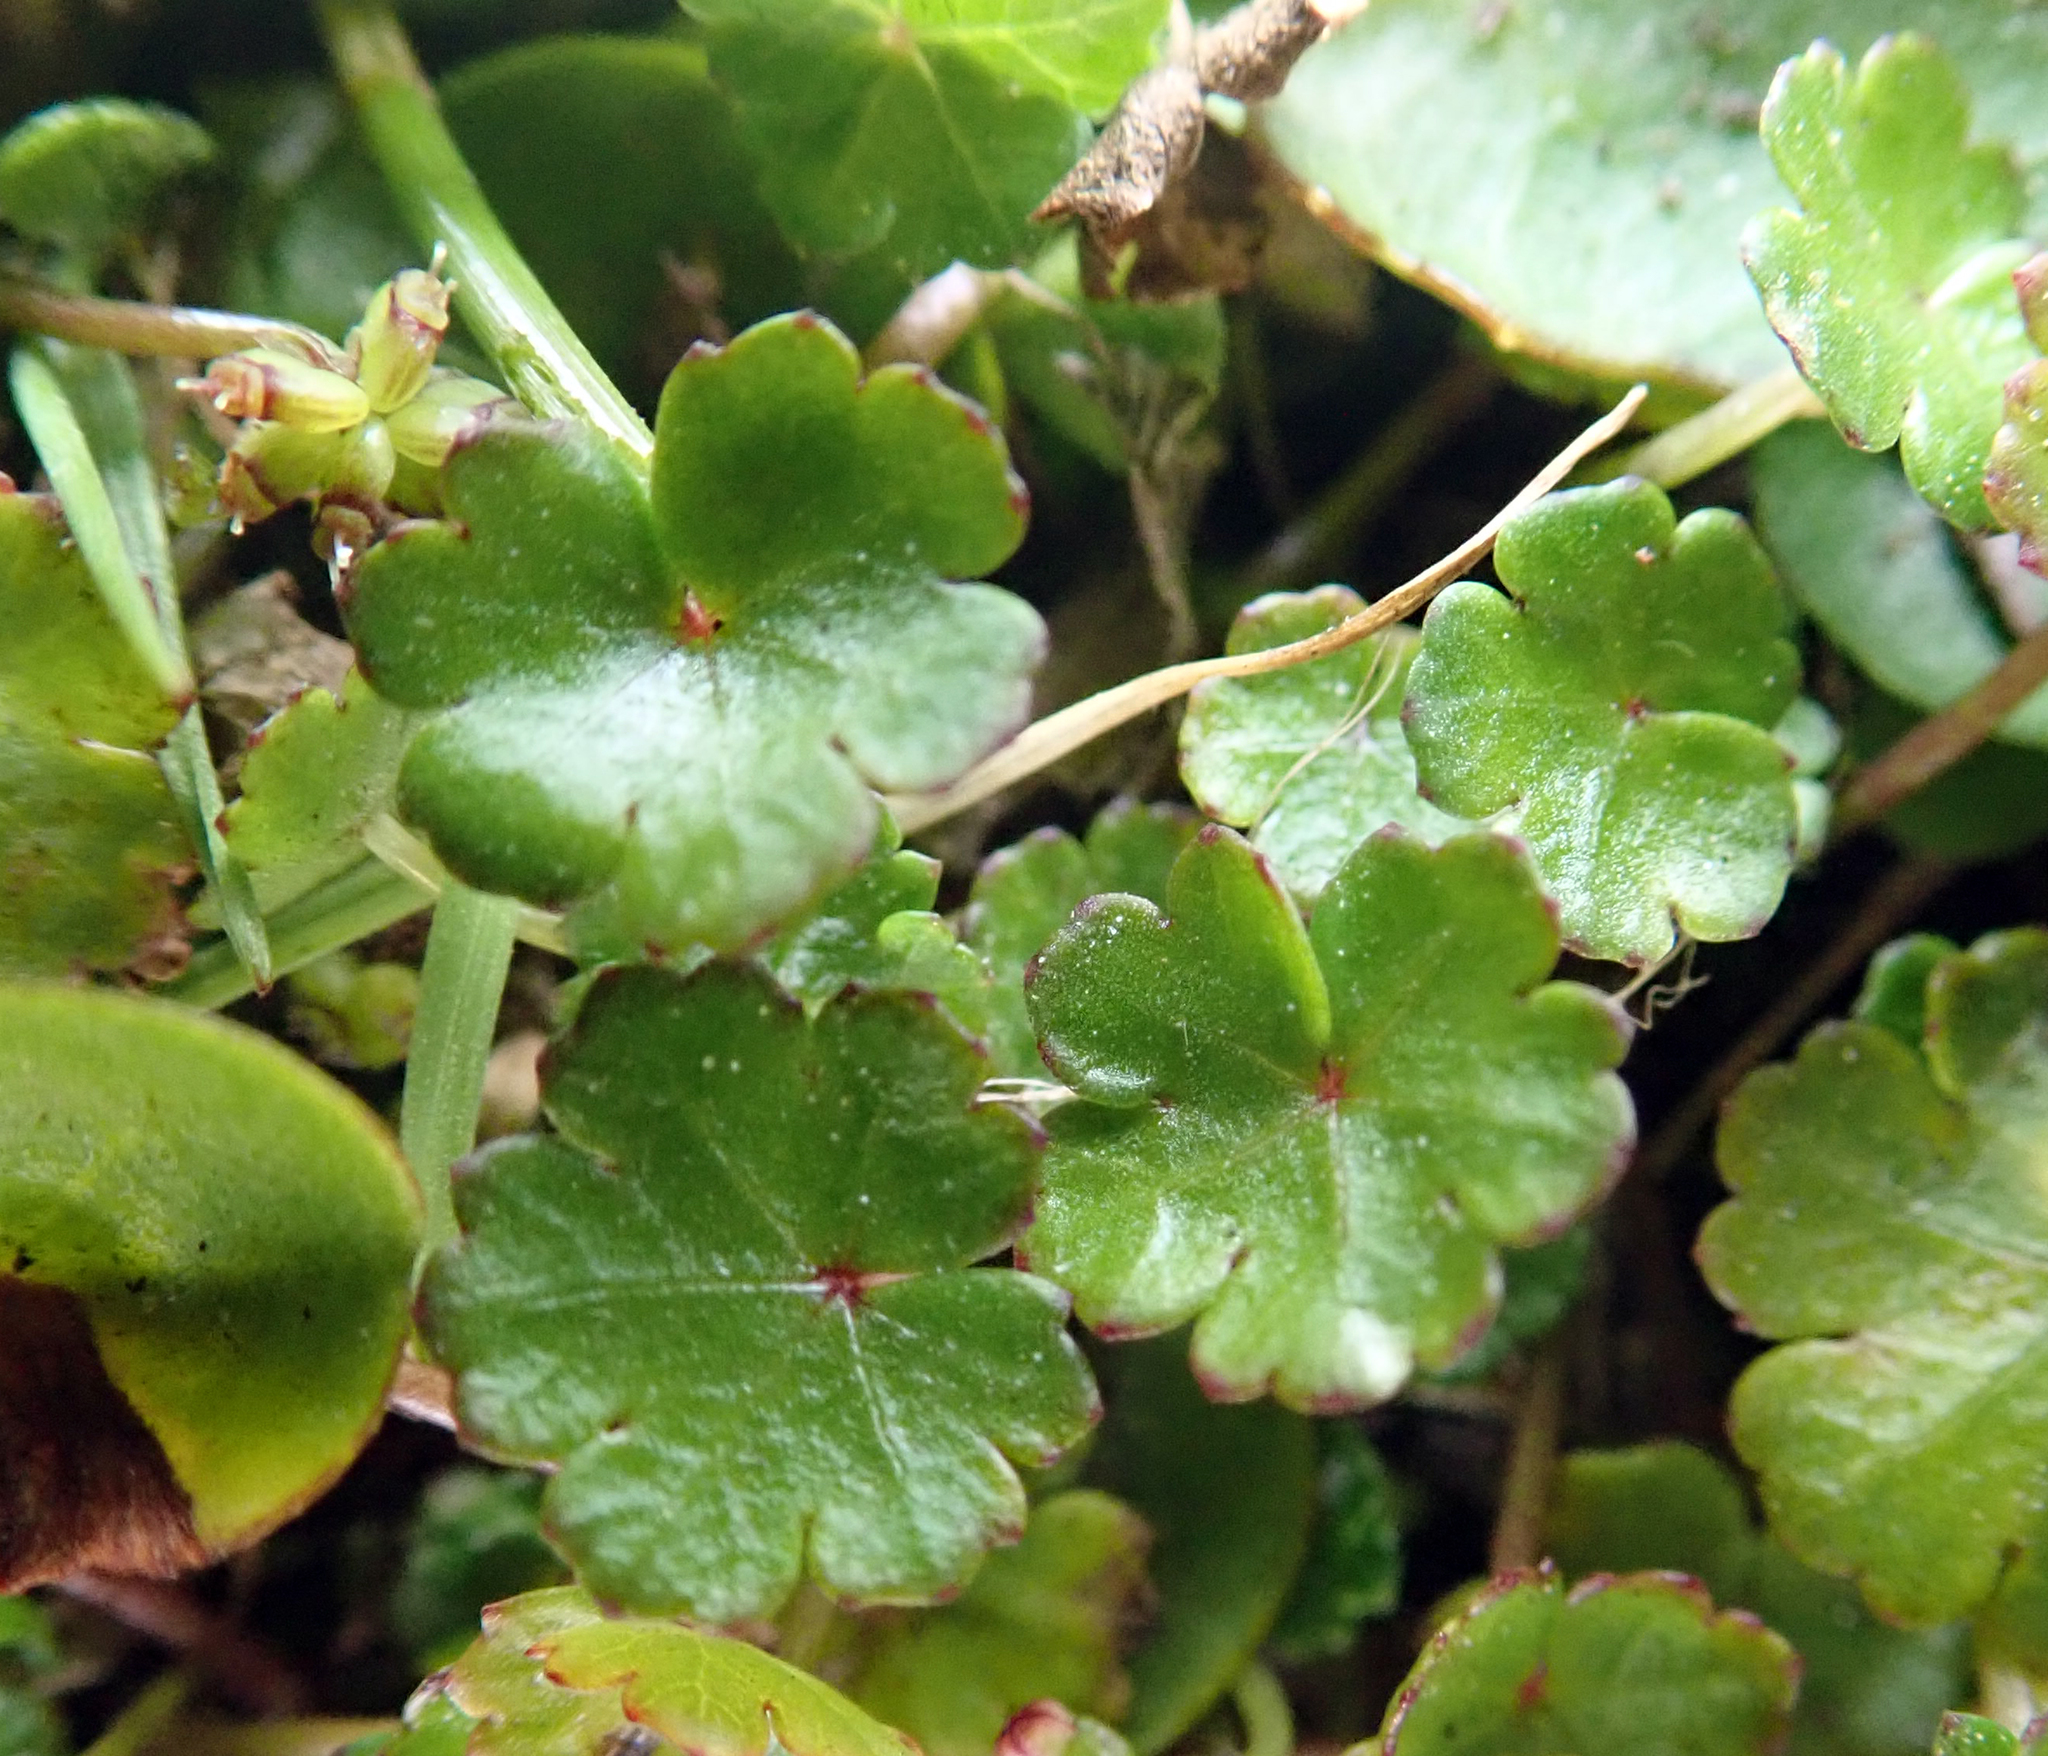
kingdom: Plantae
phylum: Tracheophyta
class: Magnoliopsida
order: Apiales
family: Araliaceae
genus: Hydrocotyle
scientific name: Hydrocotyle microphylla
